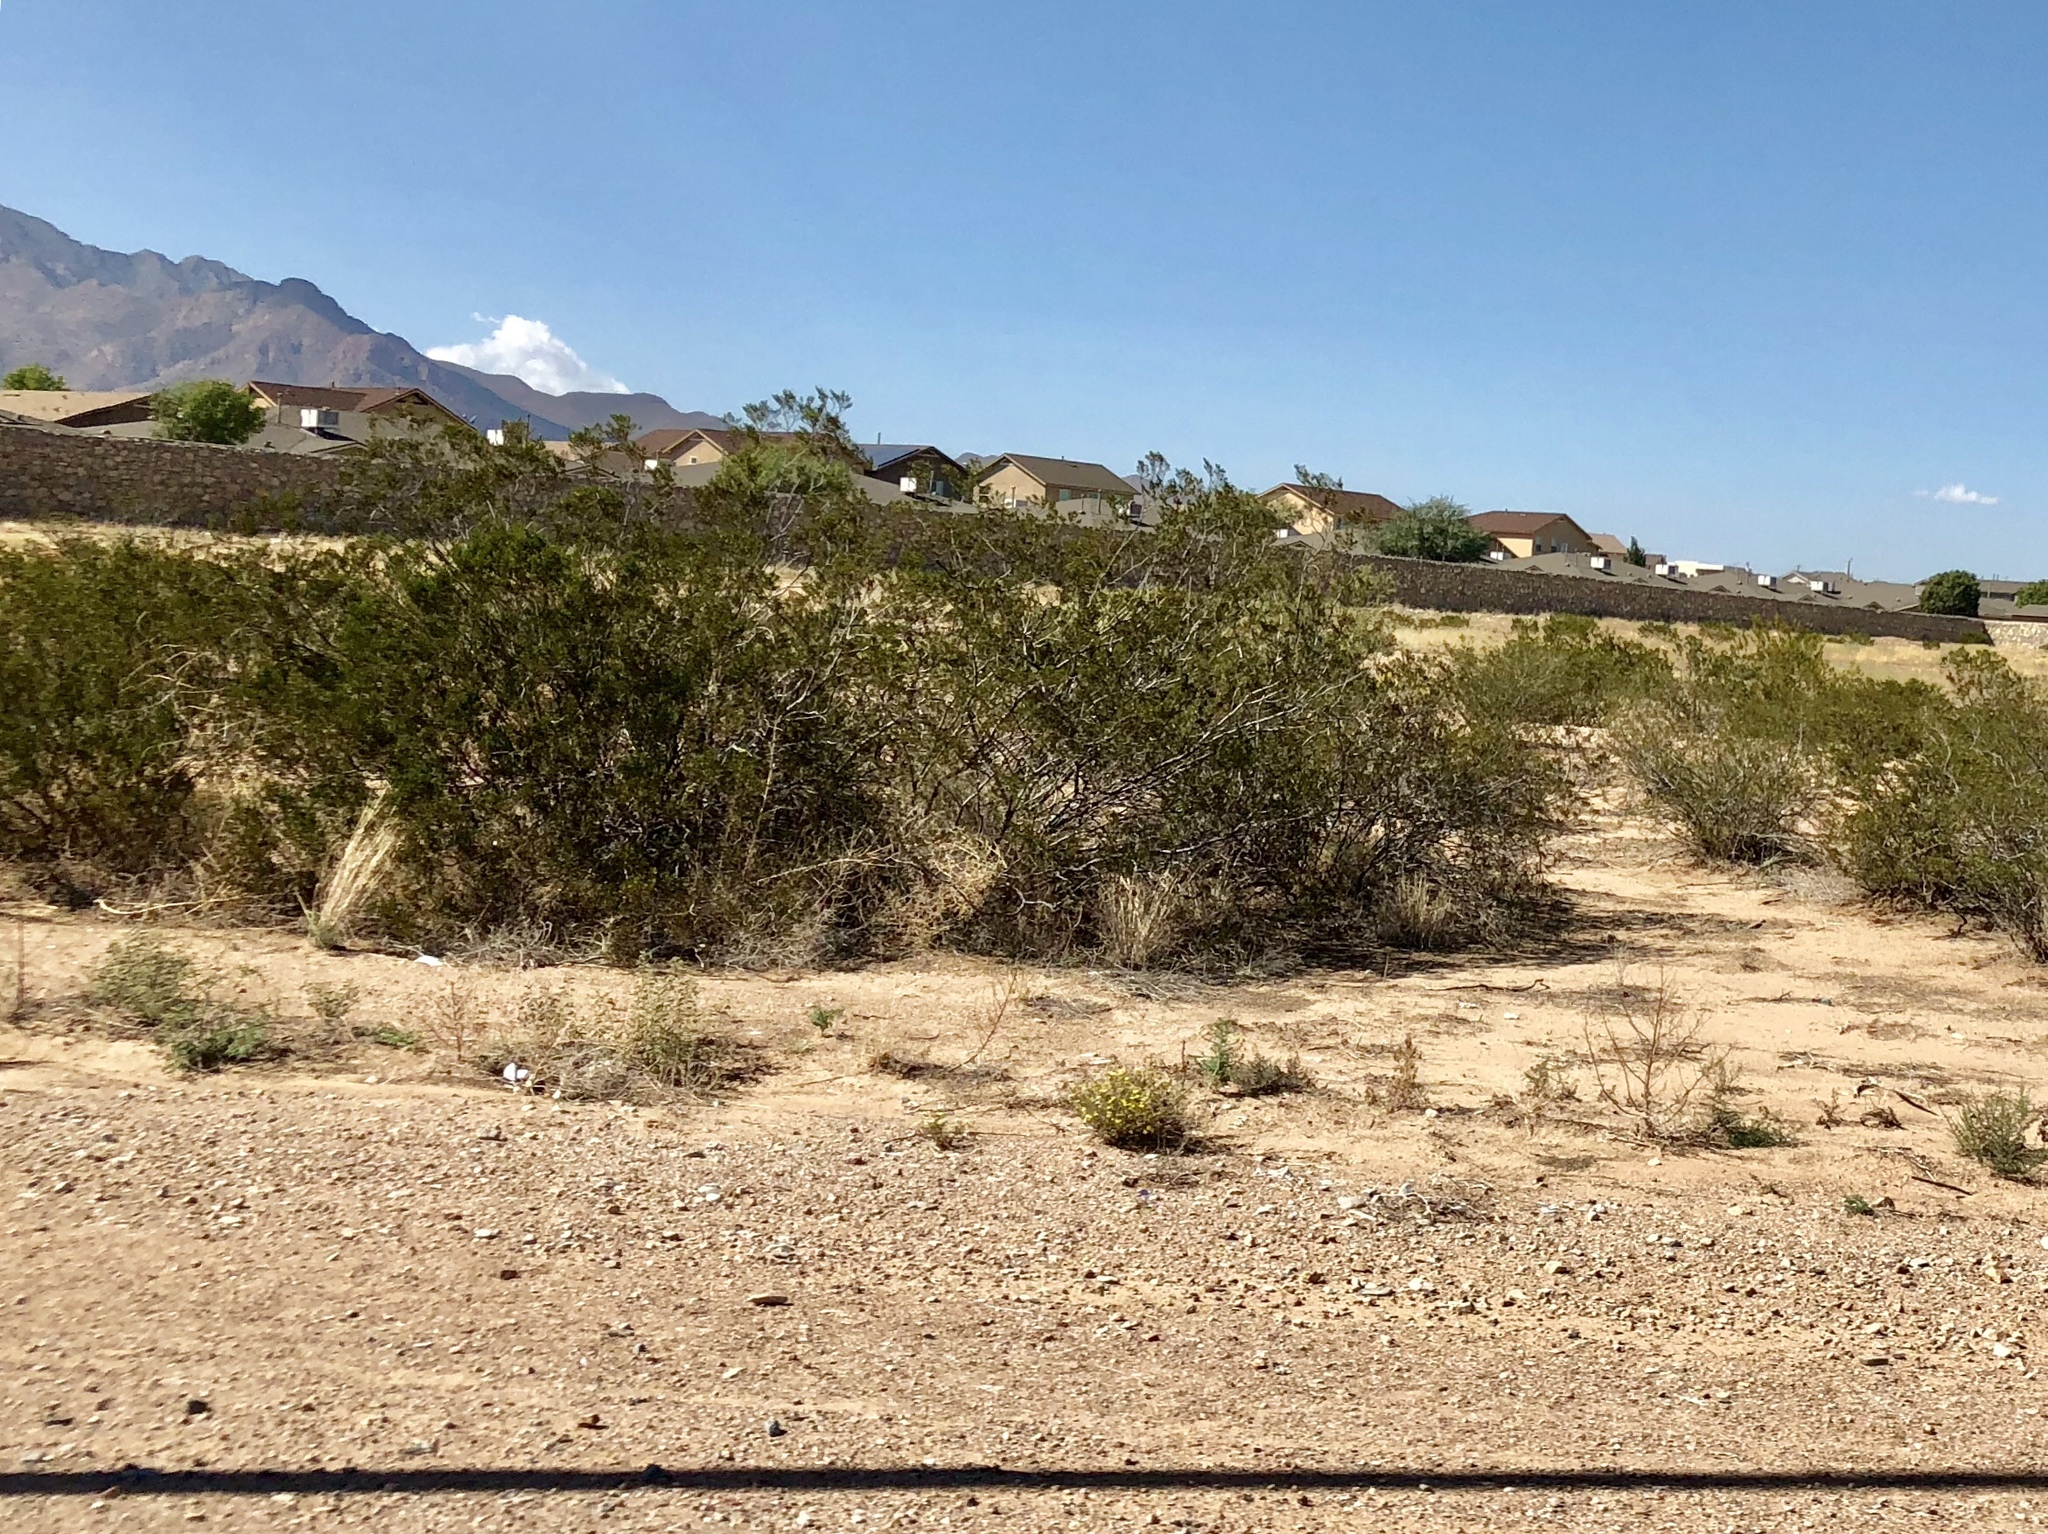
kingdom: Plantae
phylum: Tracheophyta
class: Magnoliopsida
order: Zygophyllales
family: Zygophyllaceae
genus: Larrea
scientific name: Larrea tridentata
